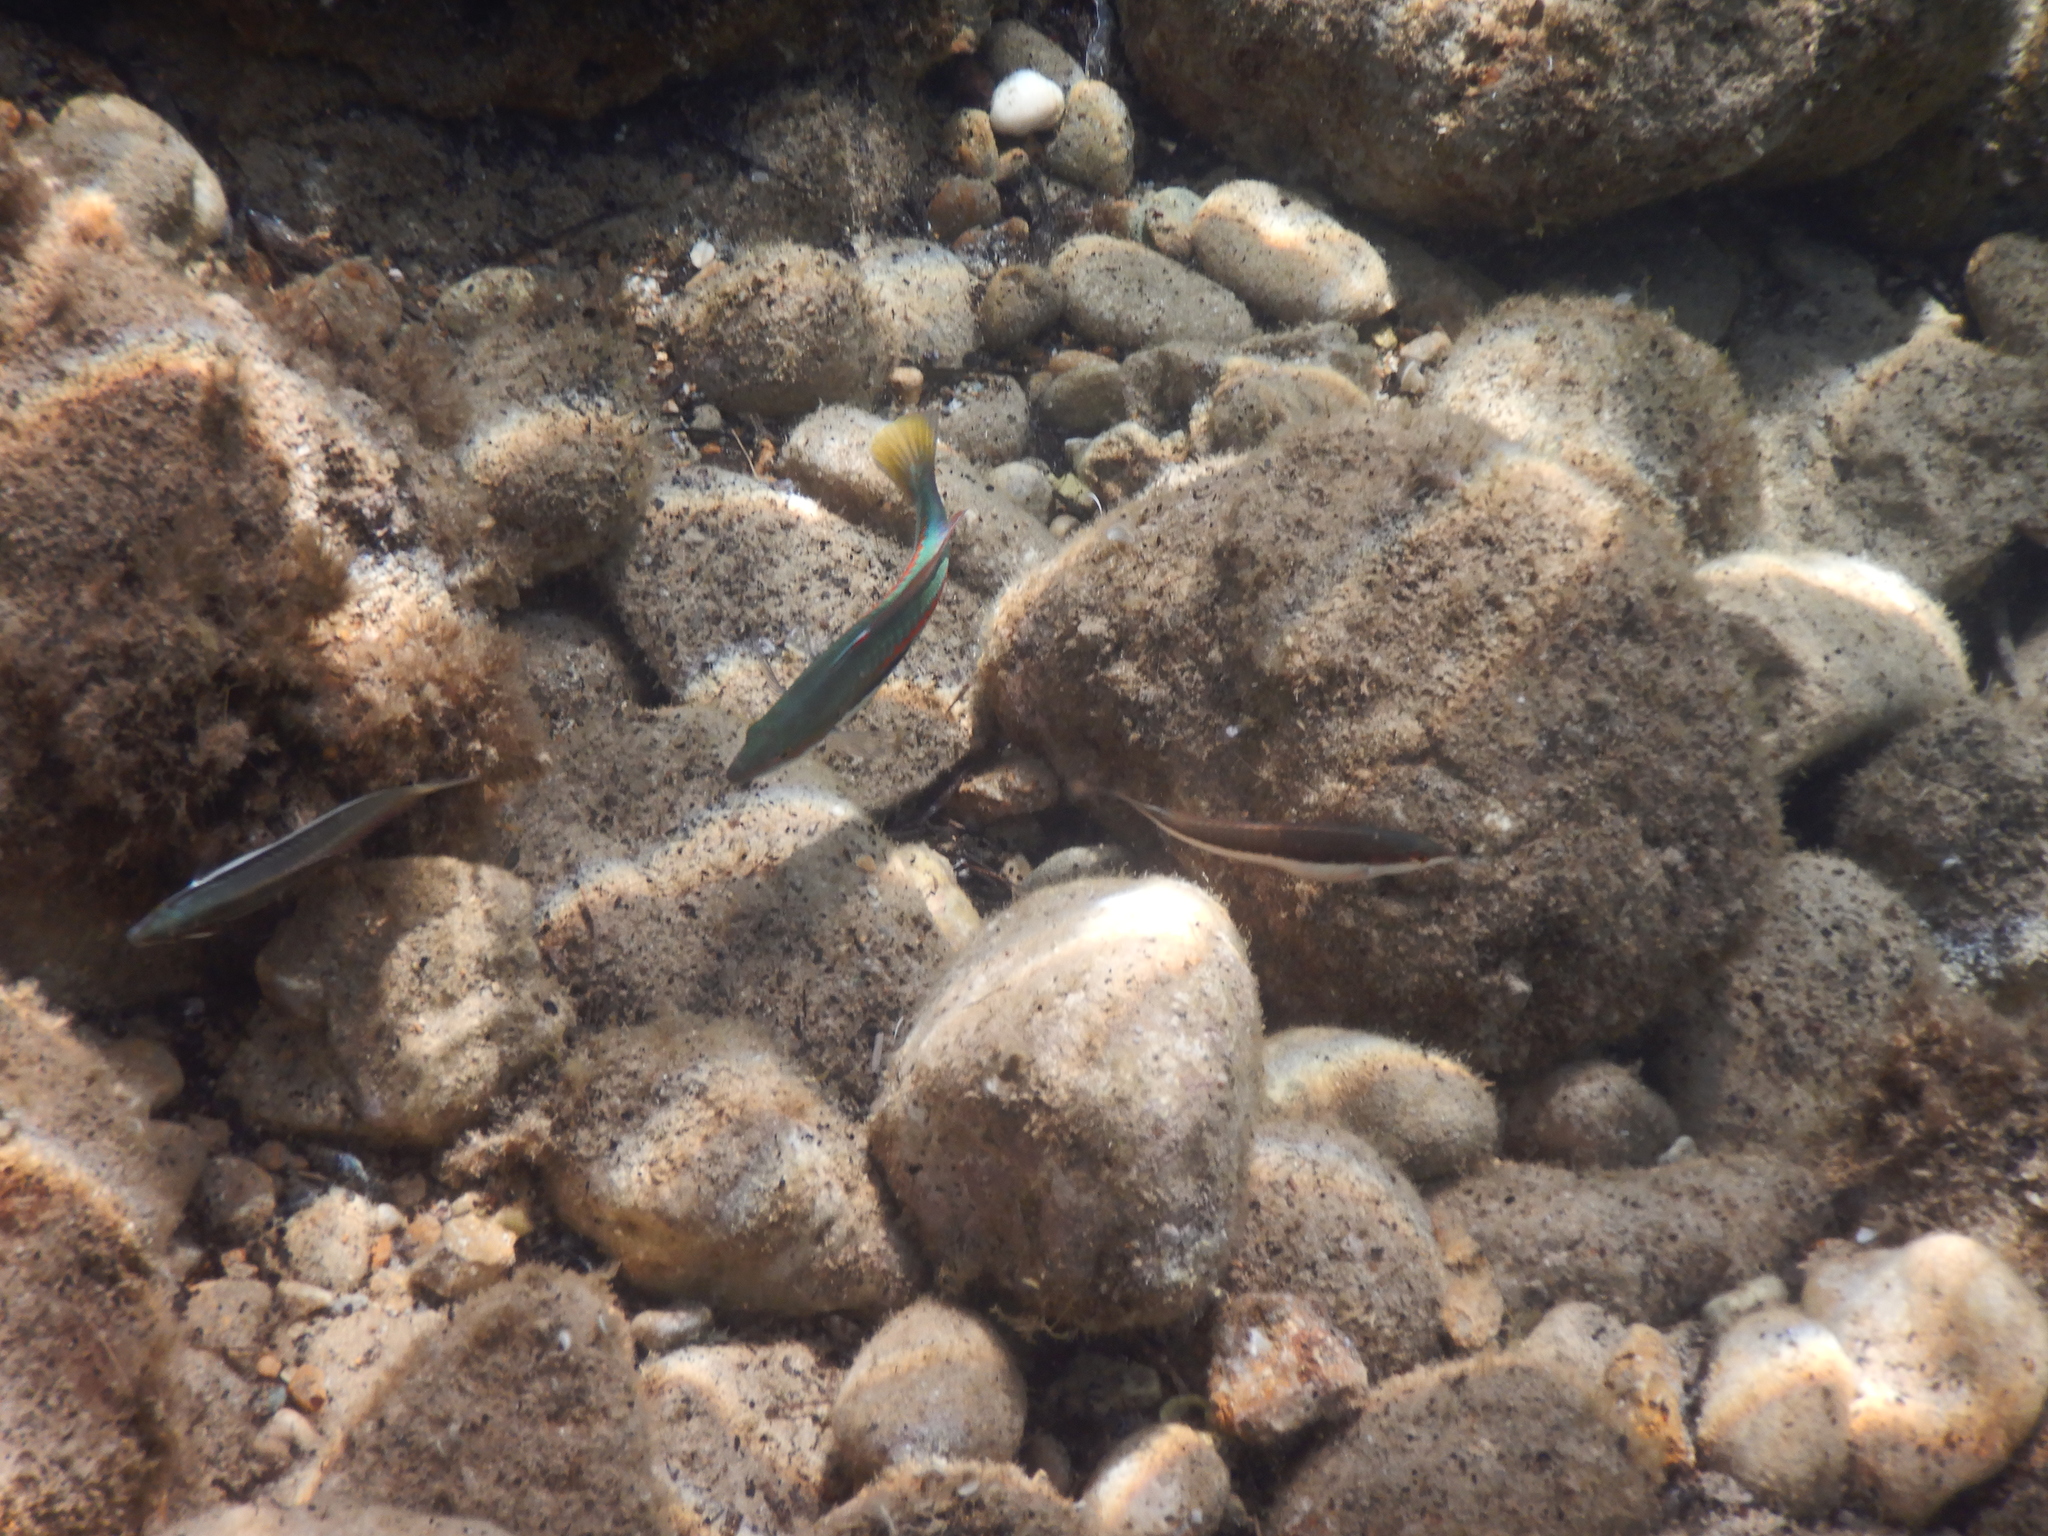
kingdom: Animalia
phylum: Chordata
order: Perciformes
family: Labridae
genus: Coris
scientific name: Coris julis
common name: Rainbow wrasse
